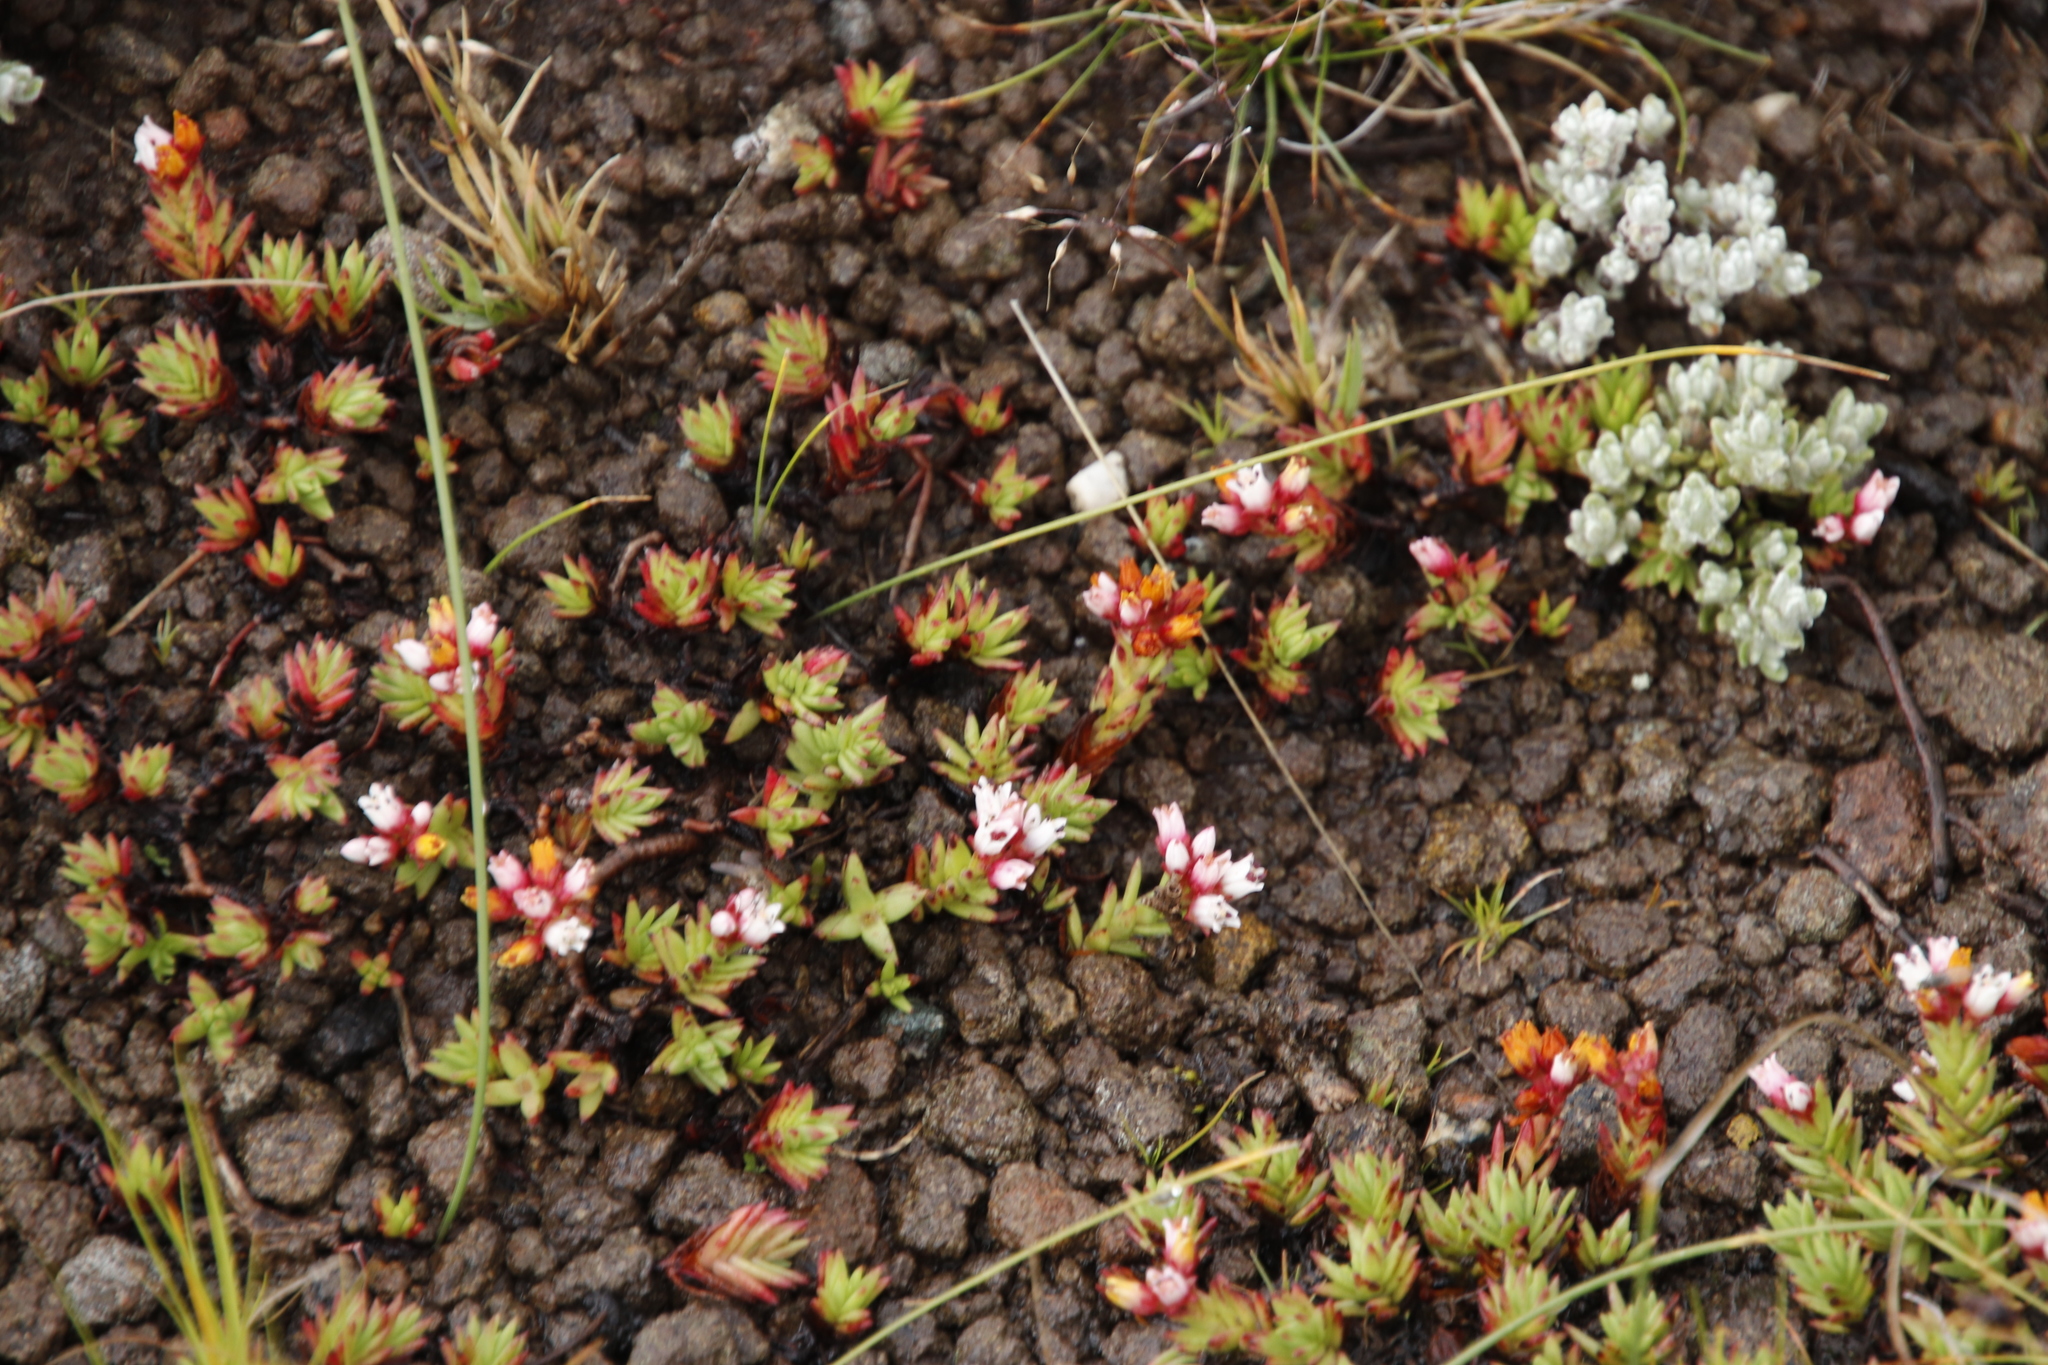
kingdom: Plantae
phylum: Tracheophyta
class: Magnoliopsida
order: Saxifragales
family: Crassulaceae
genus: Crassula
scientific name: Crassula dependens
